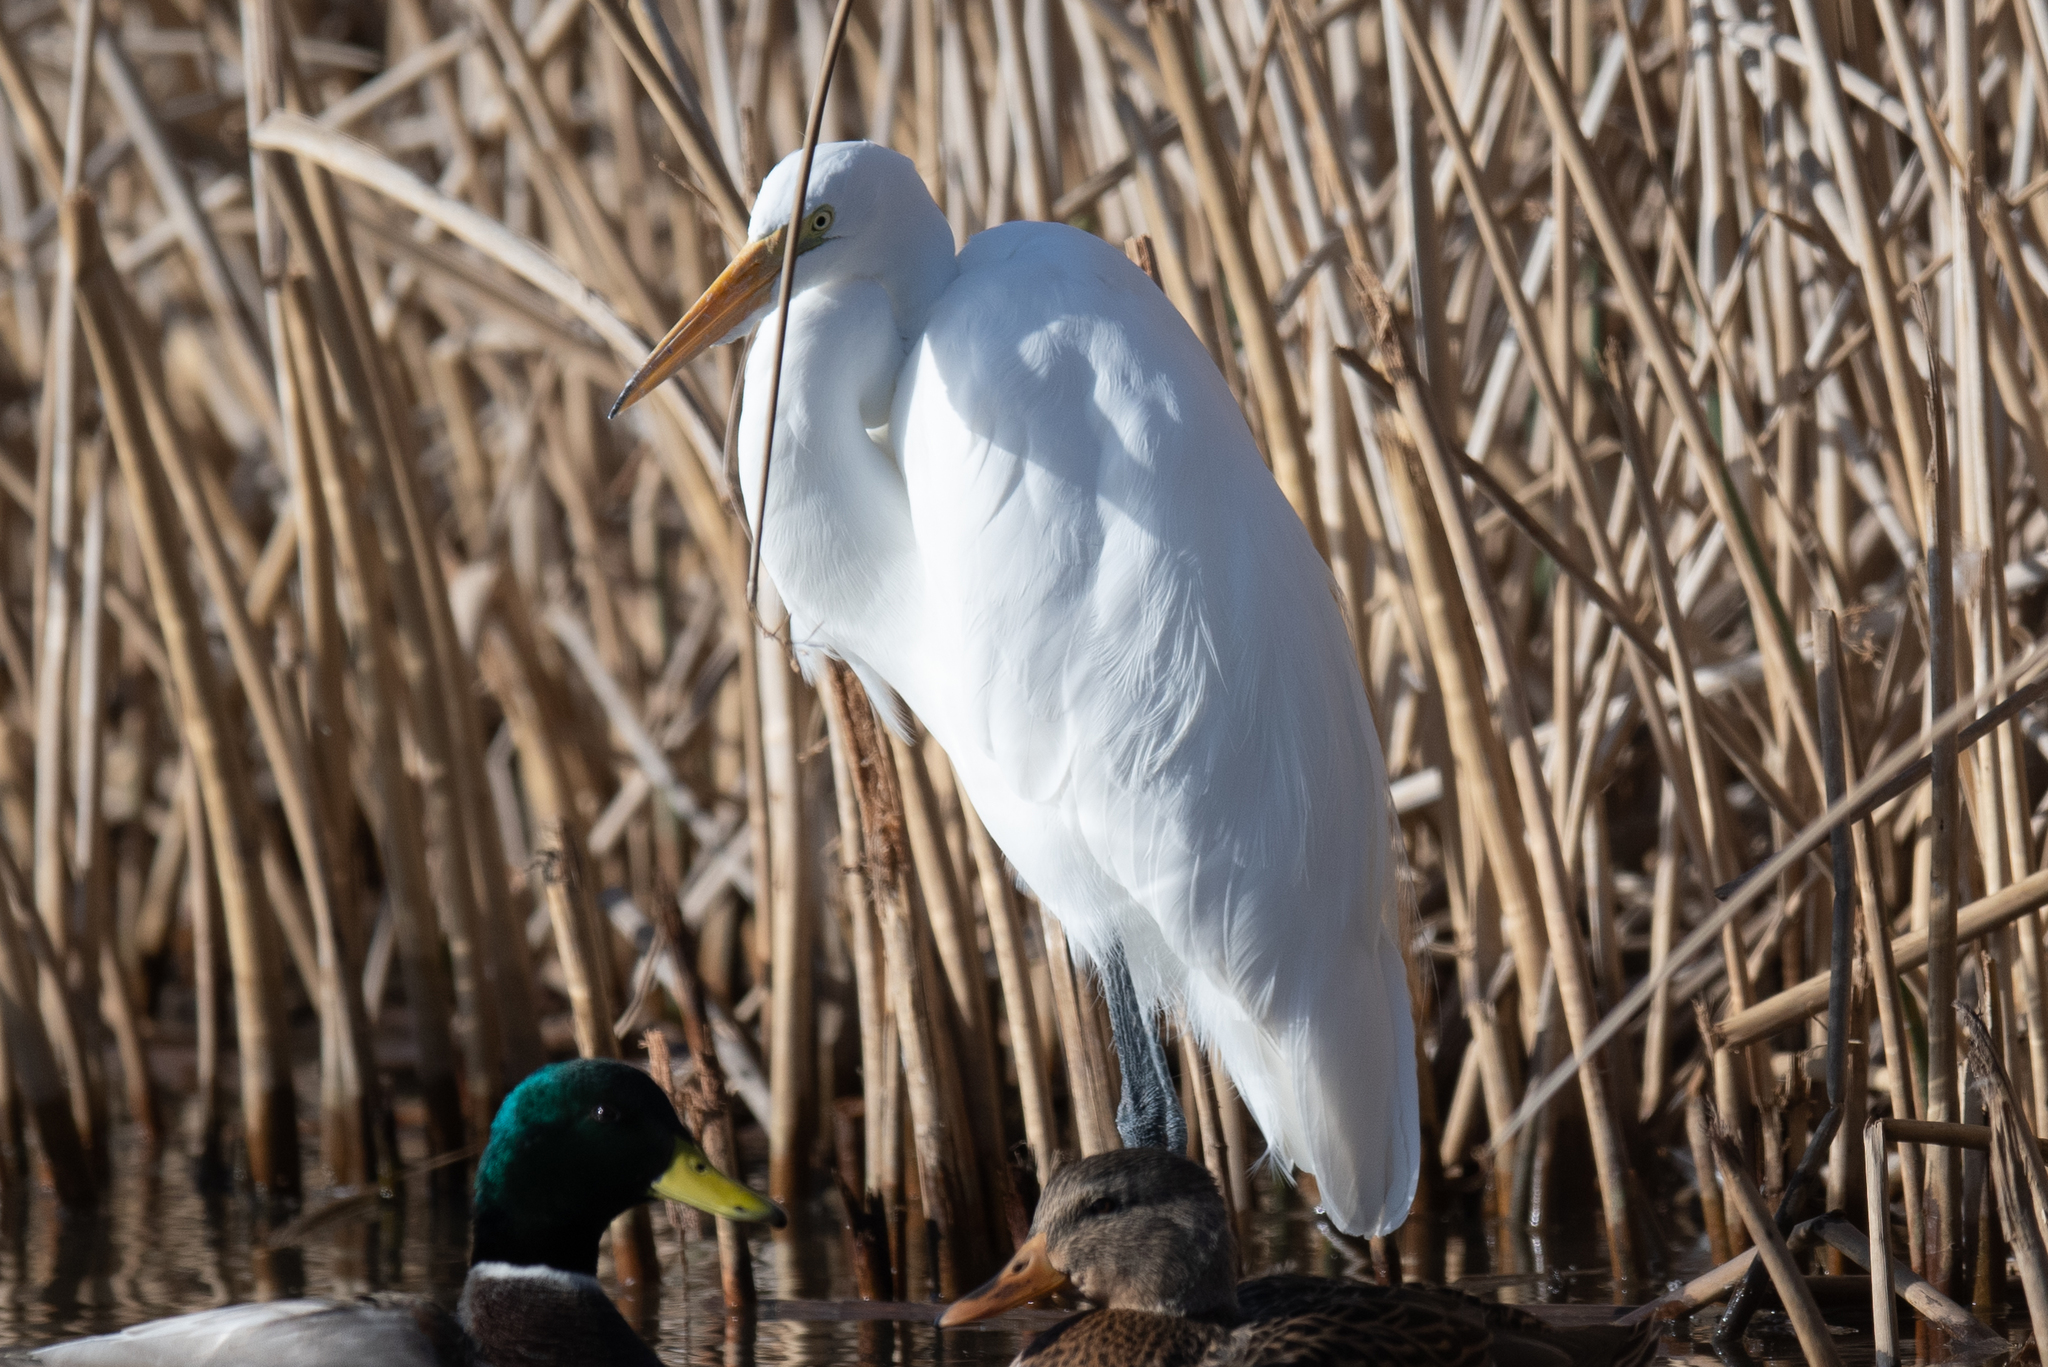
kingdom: Animalia
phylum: Chordata
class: Aves
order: Pelecaniformes
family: Ardeidae
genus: Ardea
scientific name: Ardea alba
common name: Great egret
